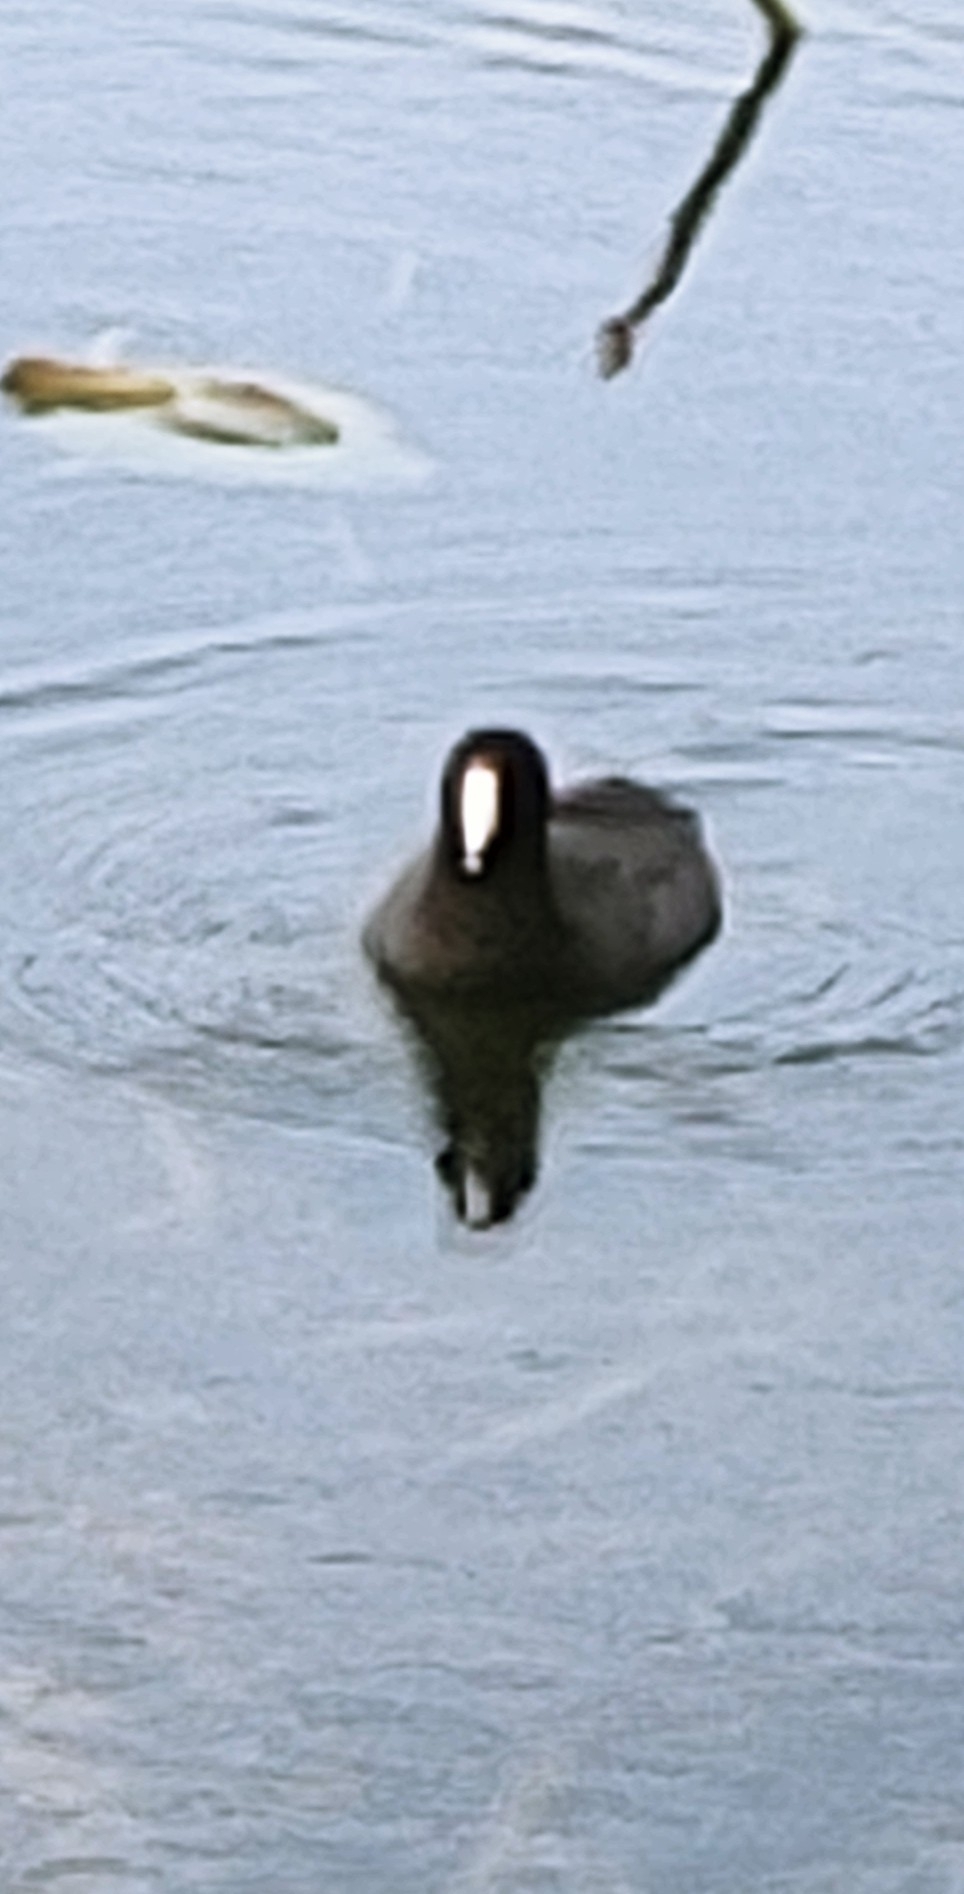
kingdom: Animalia
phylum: Chordata
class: Aves
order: Gruiformes
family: Rallidae
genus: Fulica
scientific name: Fulica americana
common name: American coot
